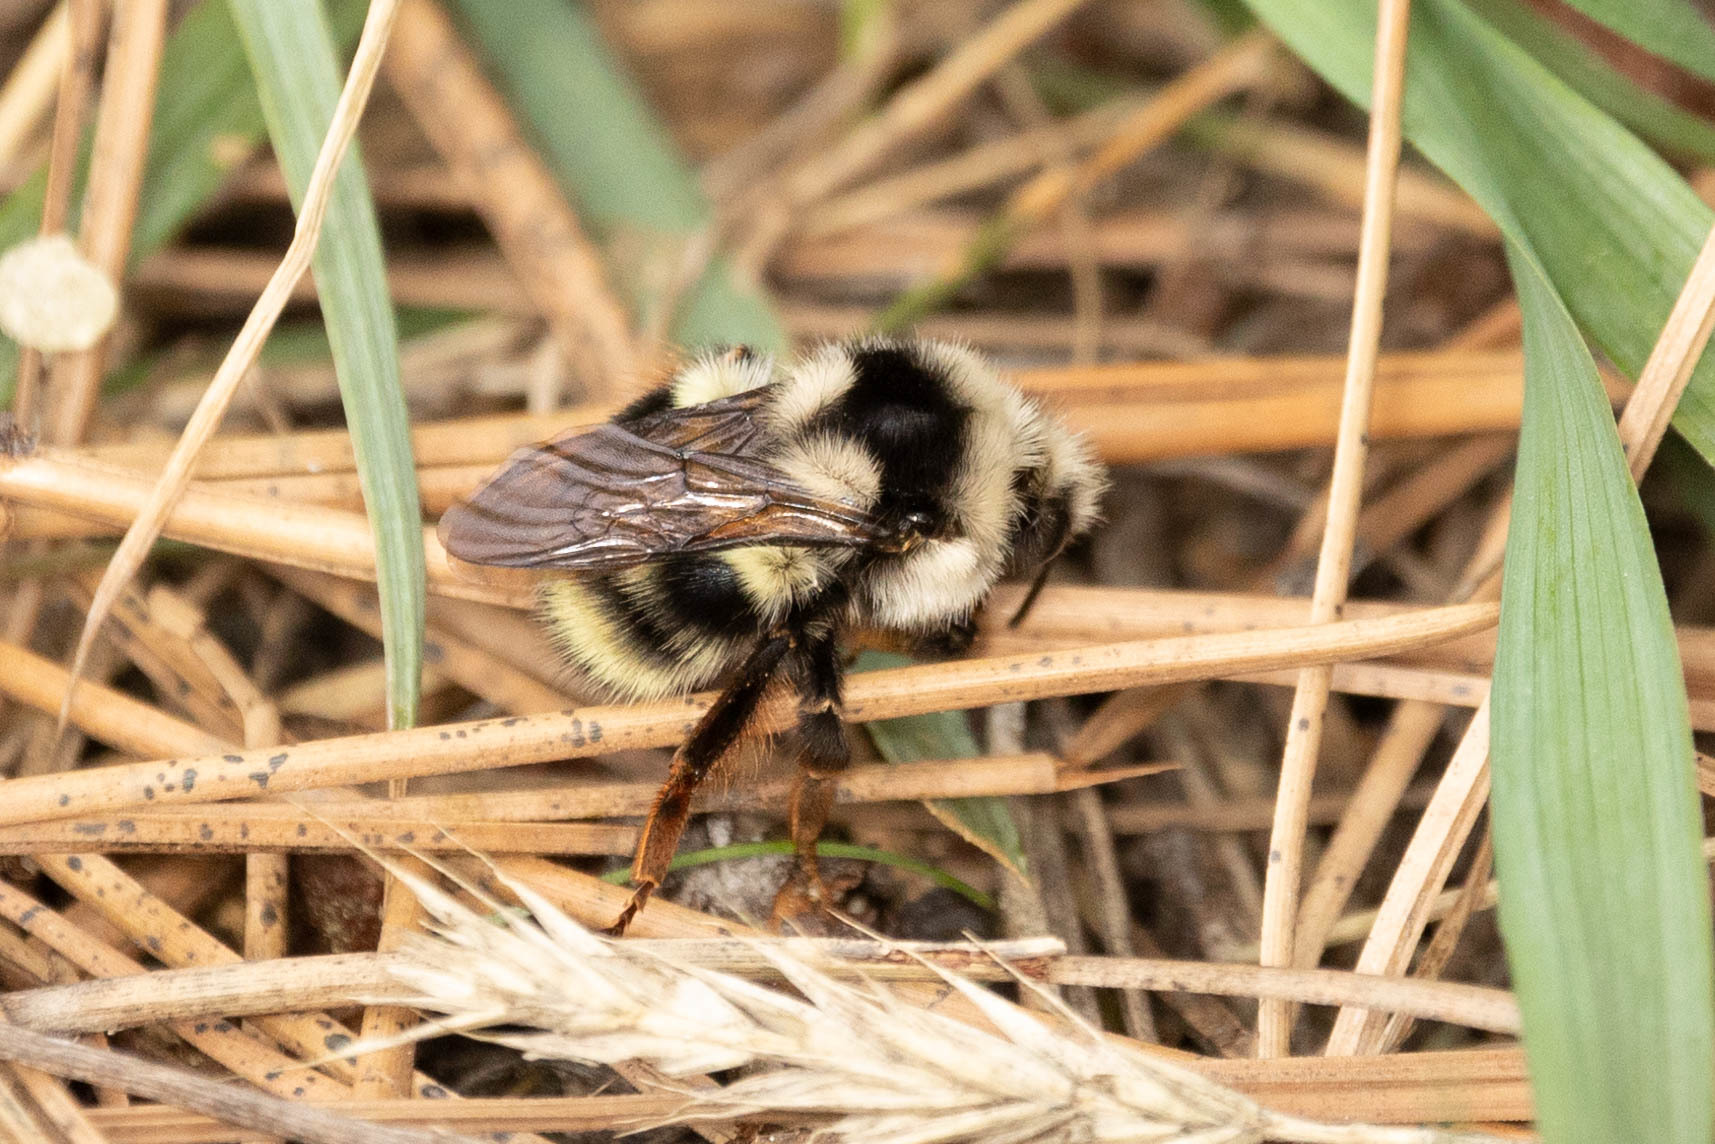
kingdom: Animalia
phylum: Arthropoda
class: Insecta
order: Hymenoptera
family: Apidae
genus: Bombus
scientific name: Bombus vancouverensis
